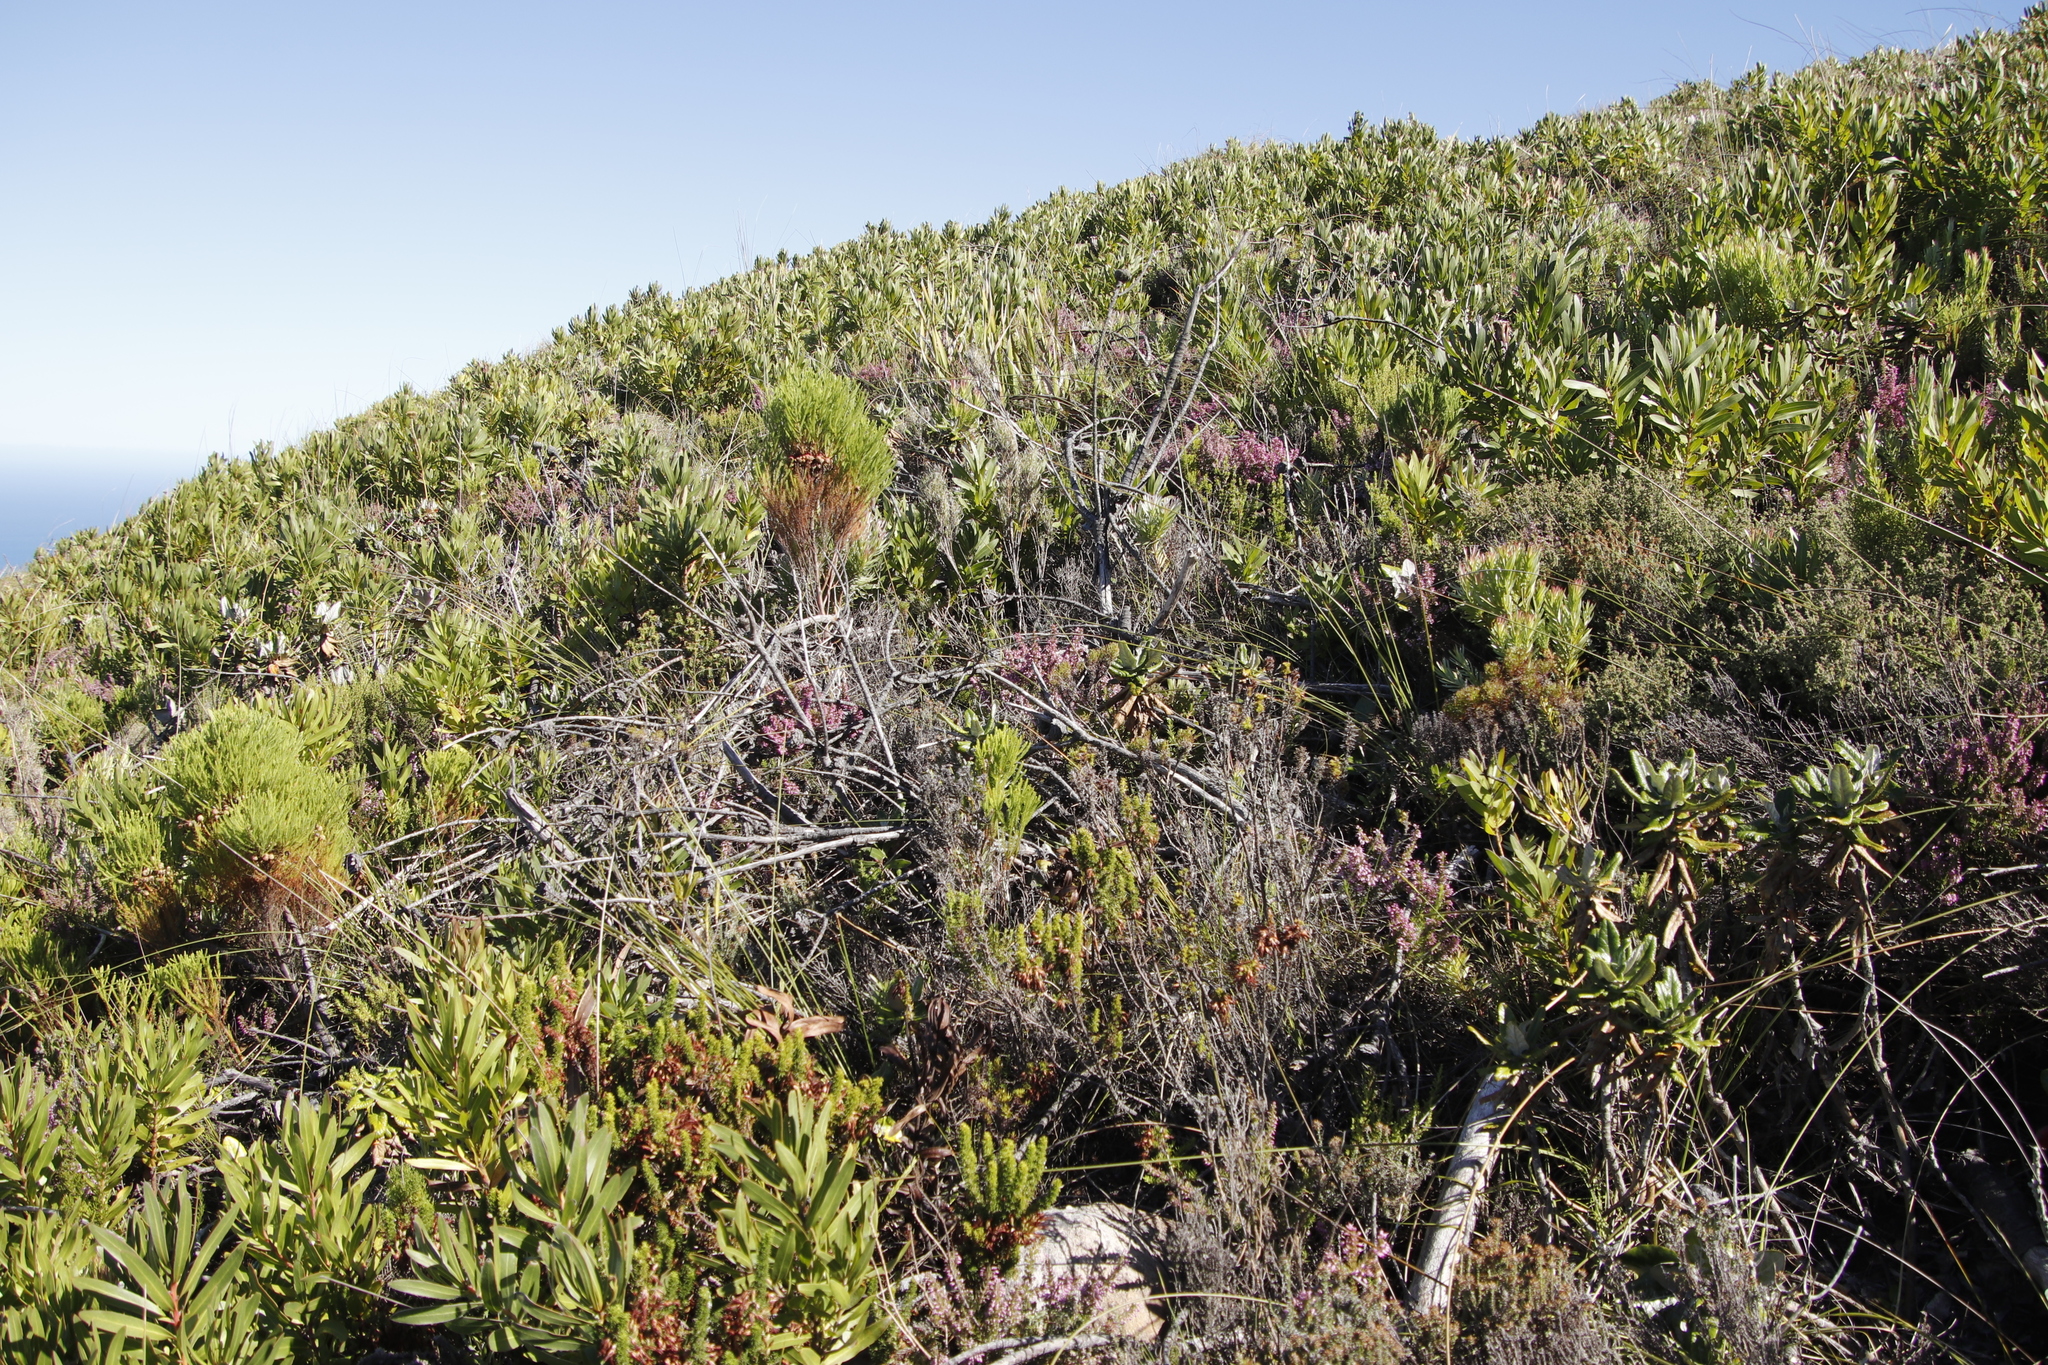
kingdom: Plantae
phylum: Tracheophyta
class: Magnoliopsida
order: Proteales
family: Proteaceae
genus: Protea
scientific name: Protea lepidocarpodendron
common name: Black-bearded protea
